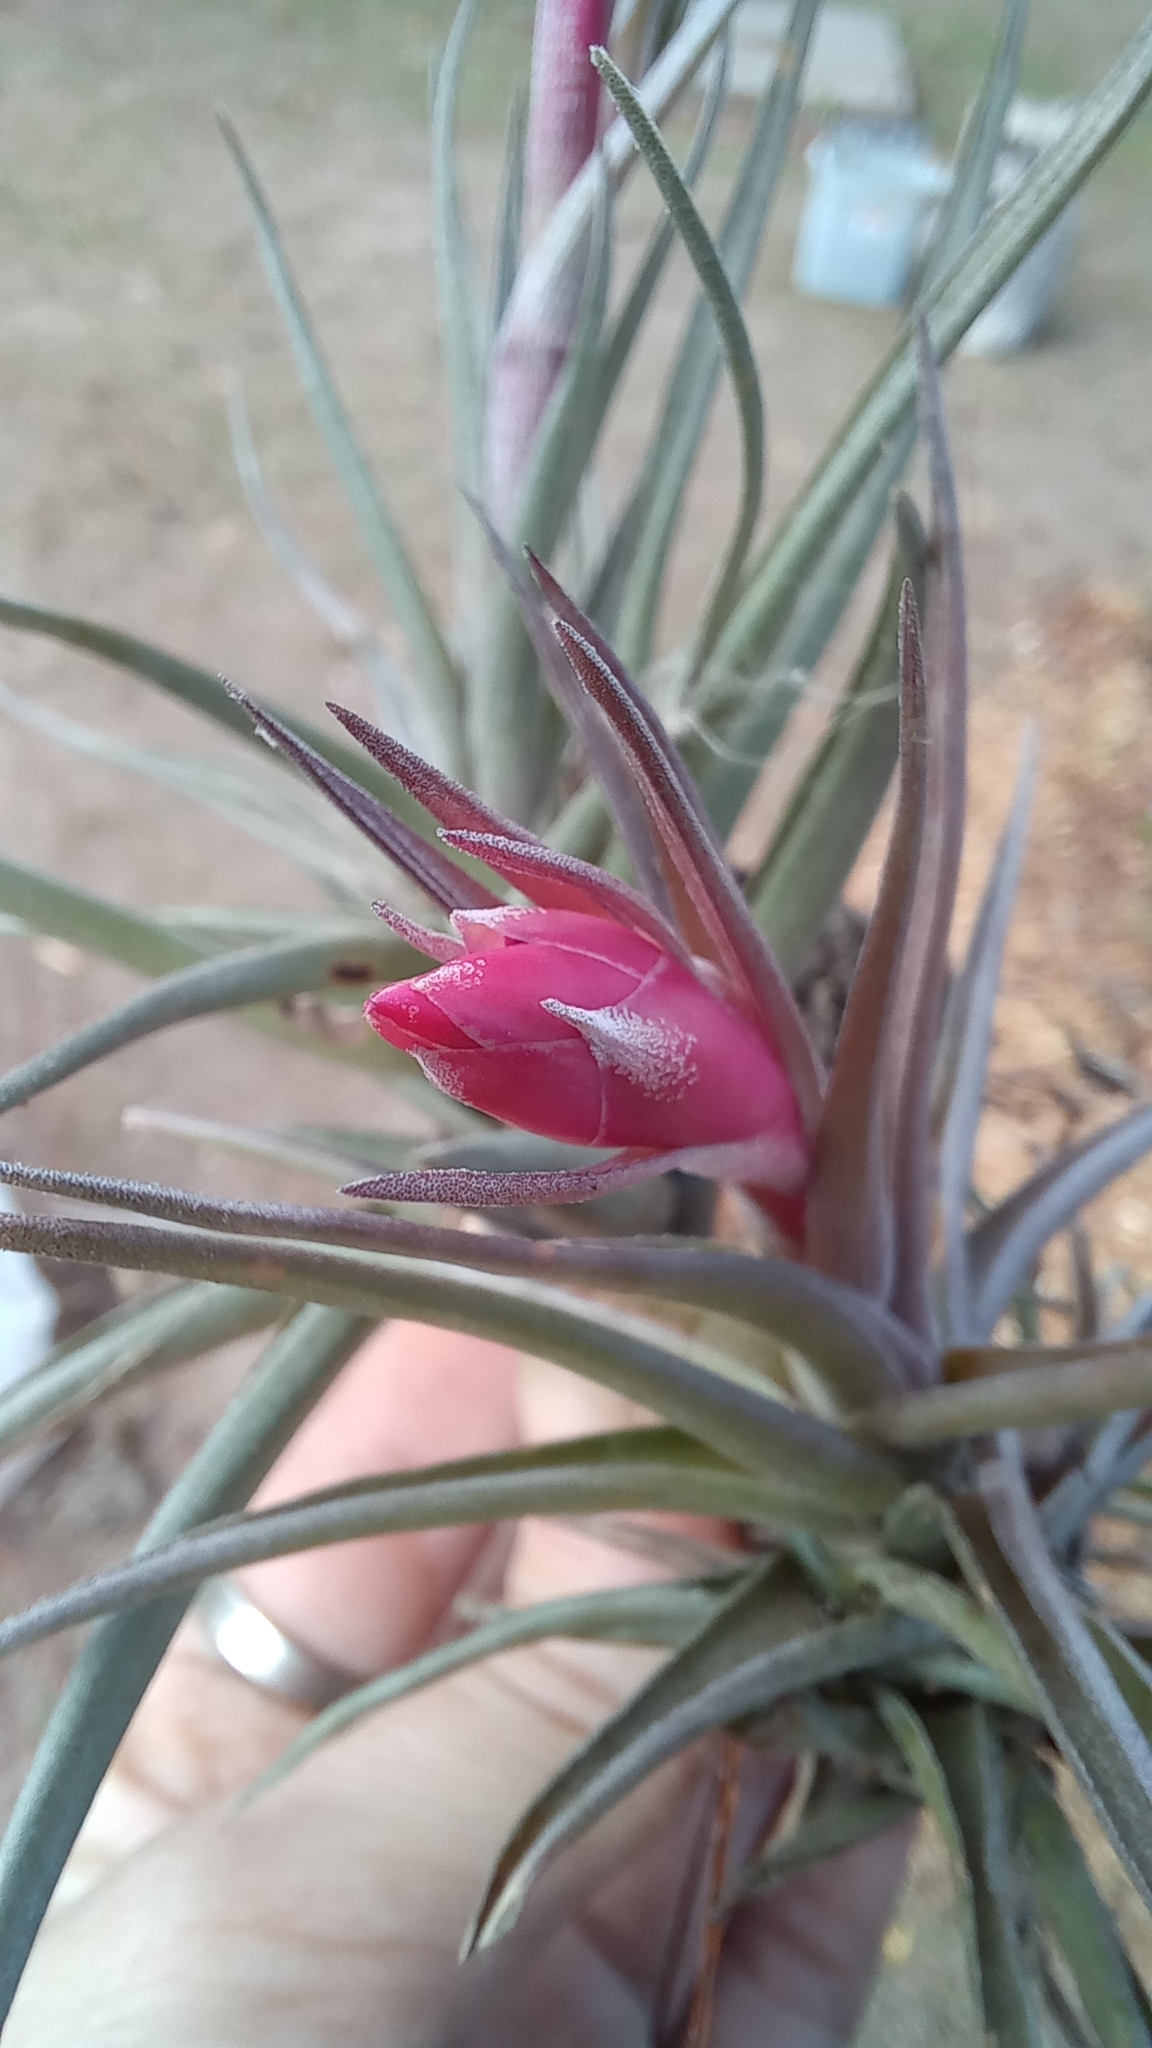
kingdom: Plantae
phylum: Tracheophyta
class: Liliopsida
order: Poales
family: Bromeliaceae
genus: Tillandsia
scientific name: Tillandsia aeranthos
